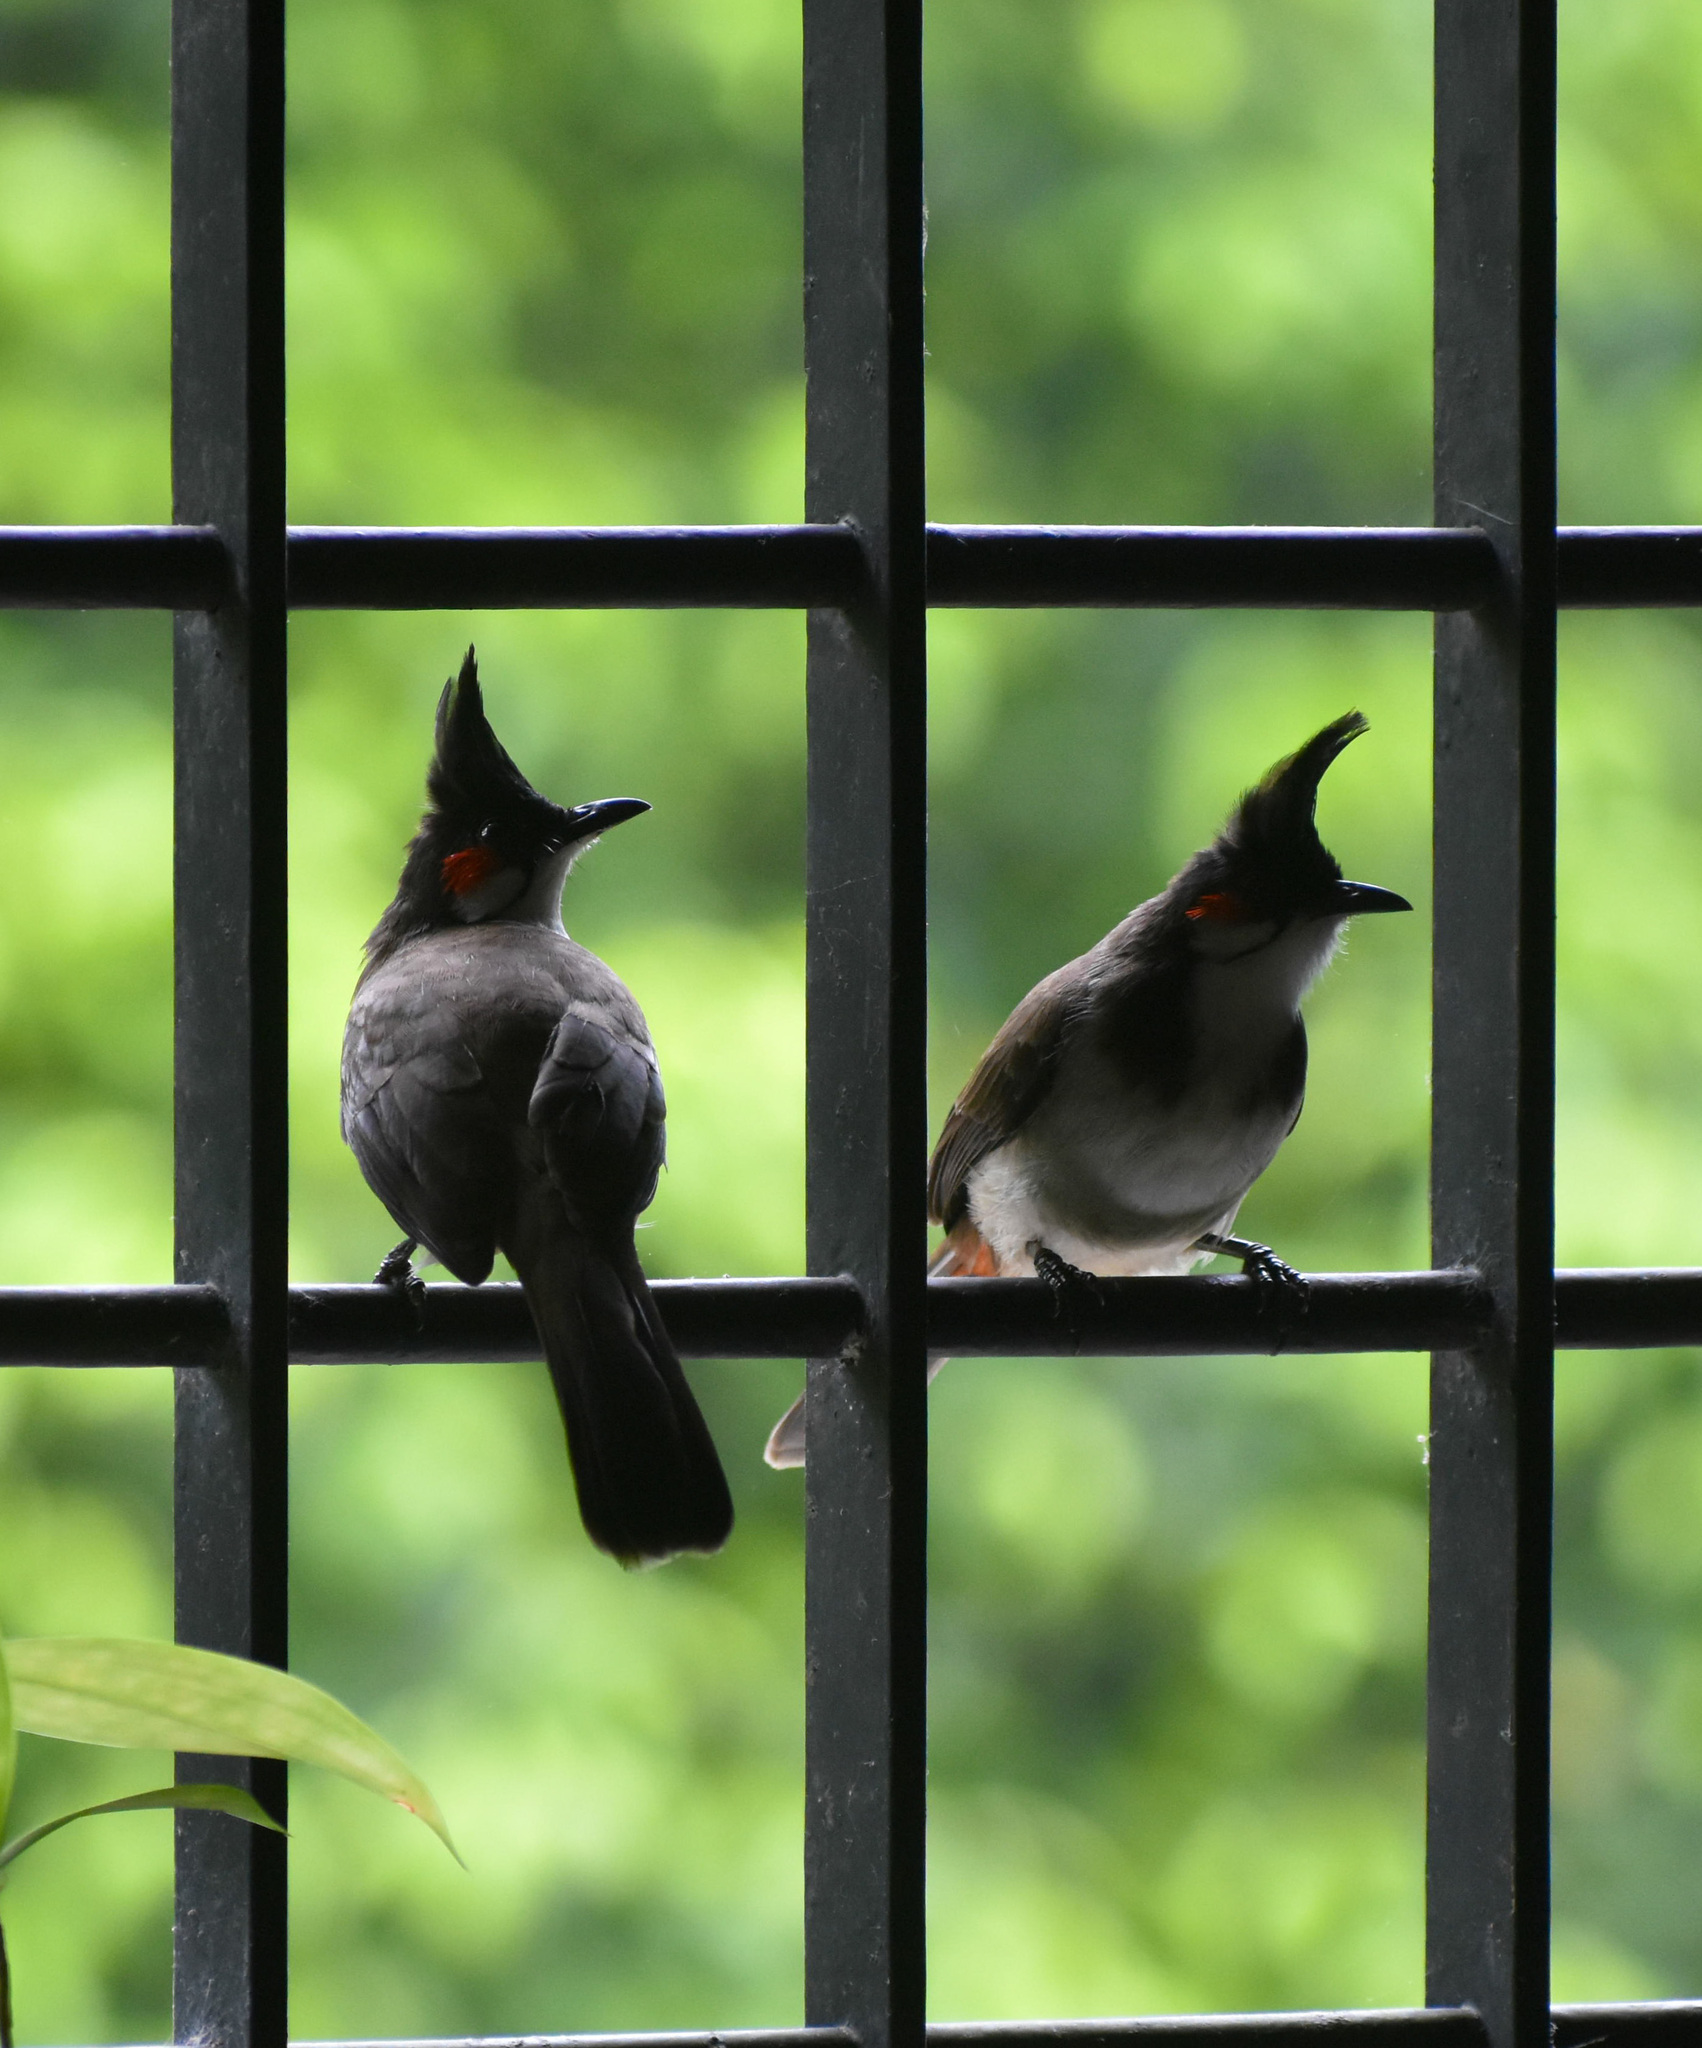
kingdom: Animalia
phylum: Chordata
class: Aves
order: Passeriformes
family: Pycnonotidae
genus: Pycnonotus
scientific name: Pycnonotus jocosus
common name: Red-whiskered bulbul
